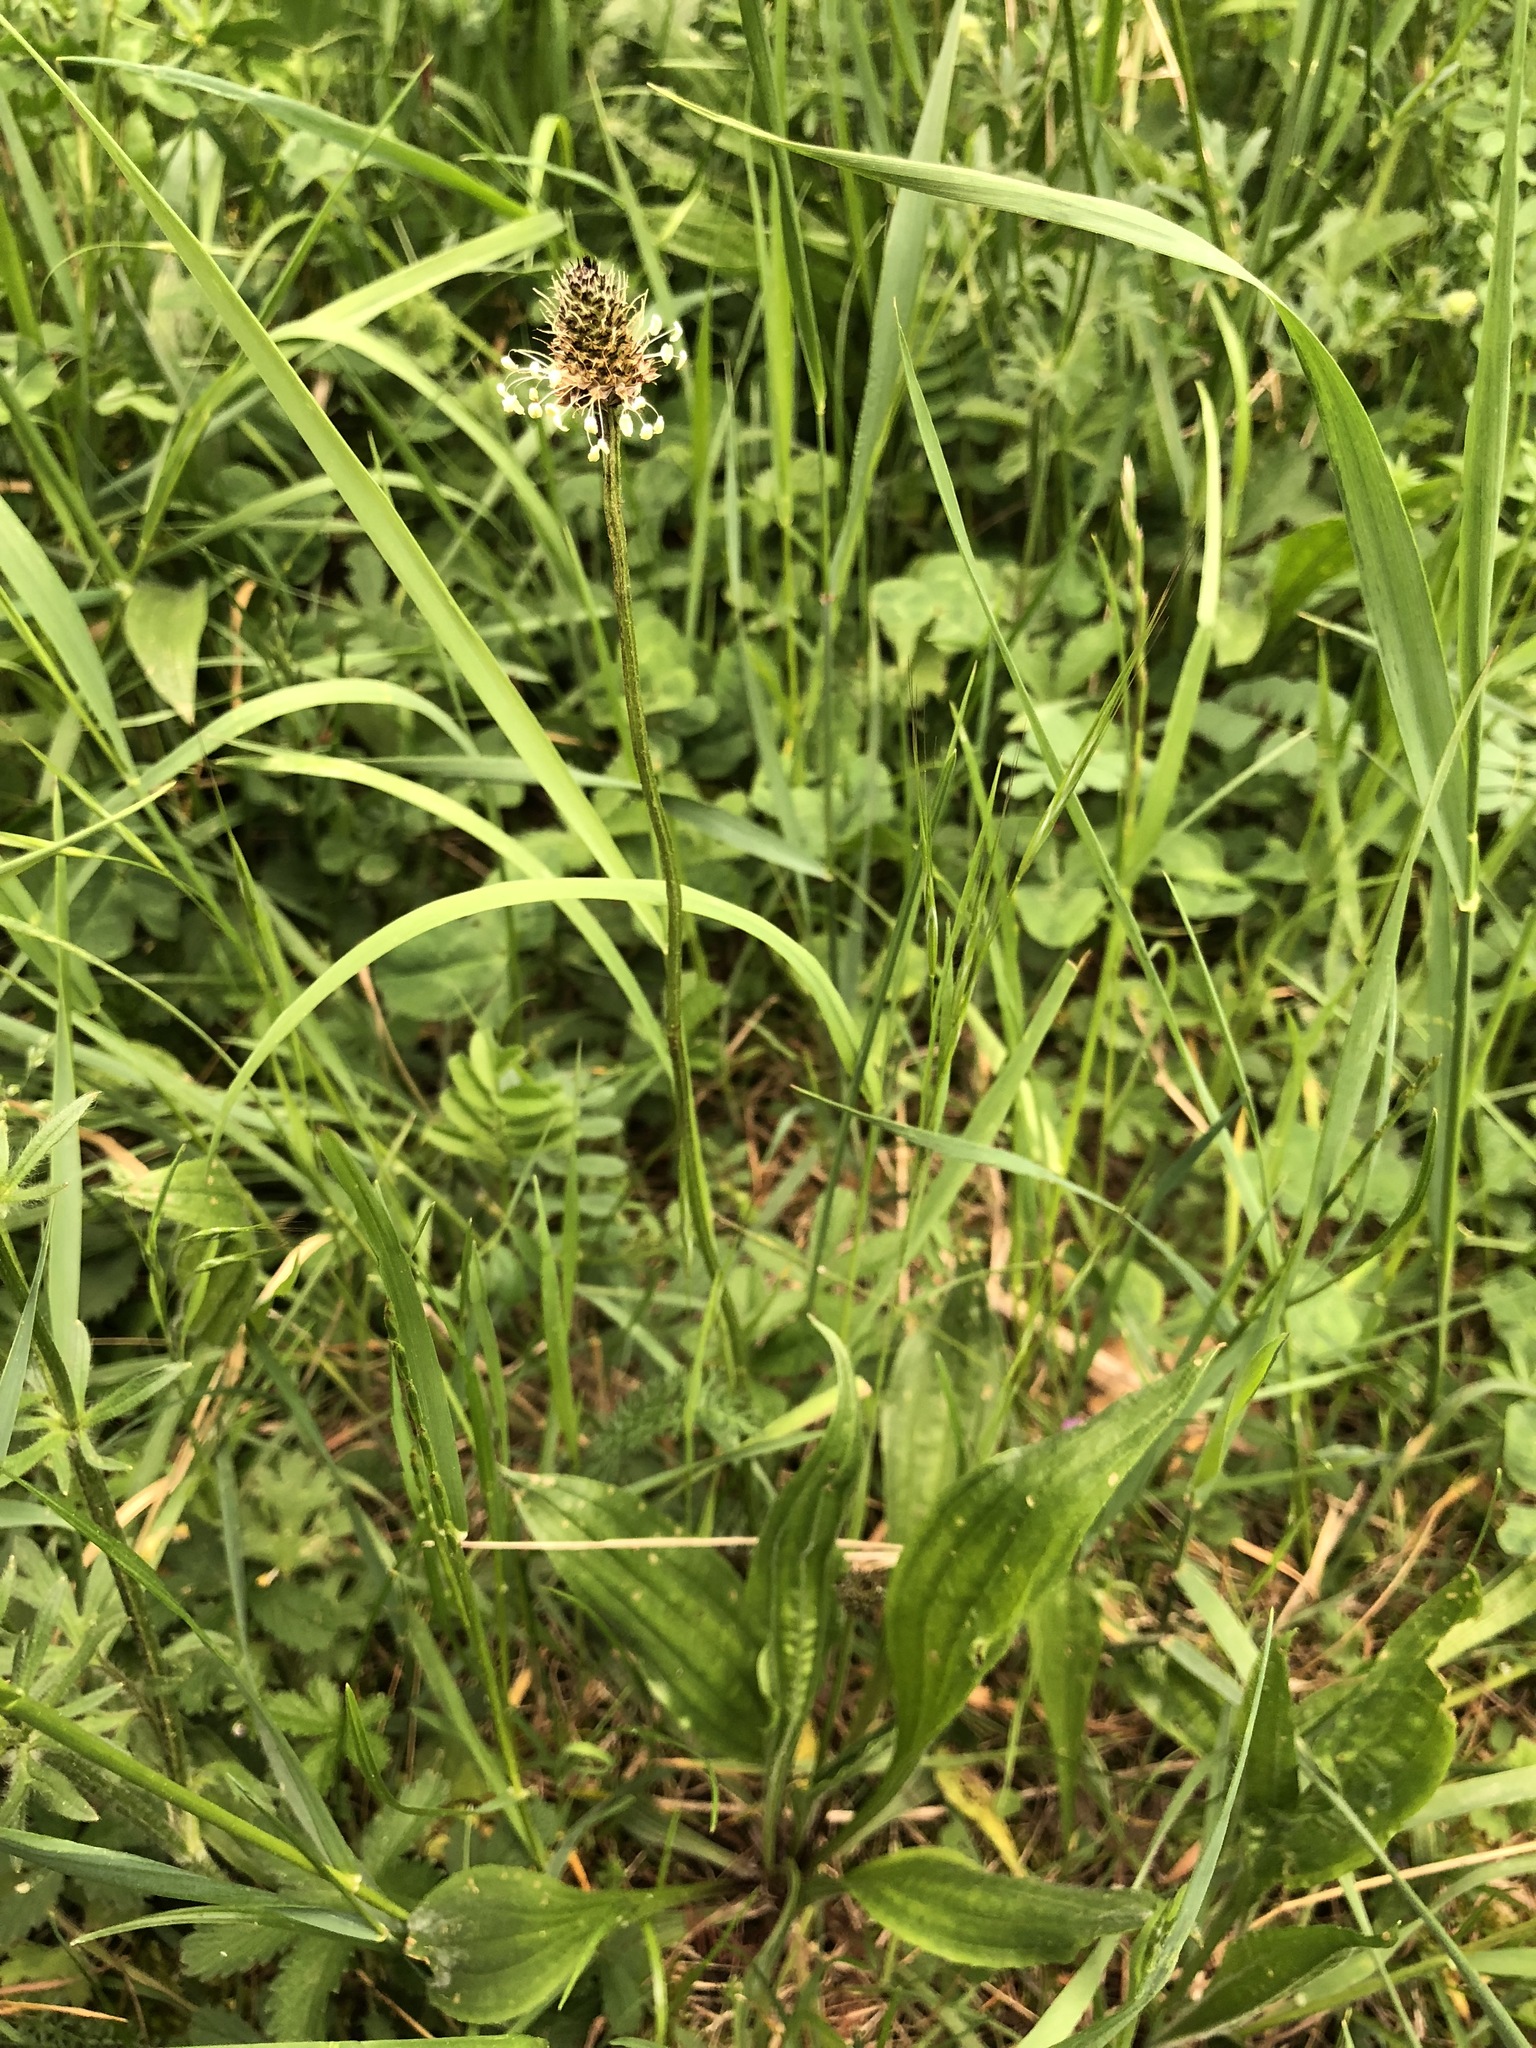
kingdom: Plantae
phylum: Tracheophyta
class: Magnoliopsida
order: Lamiales
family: Plantaginaceae
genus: Plantago
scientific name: Plantago lanceolata
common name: Ribwort plantain
